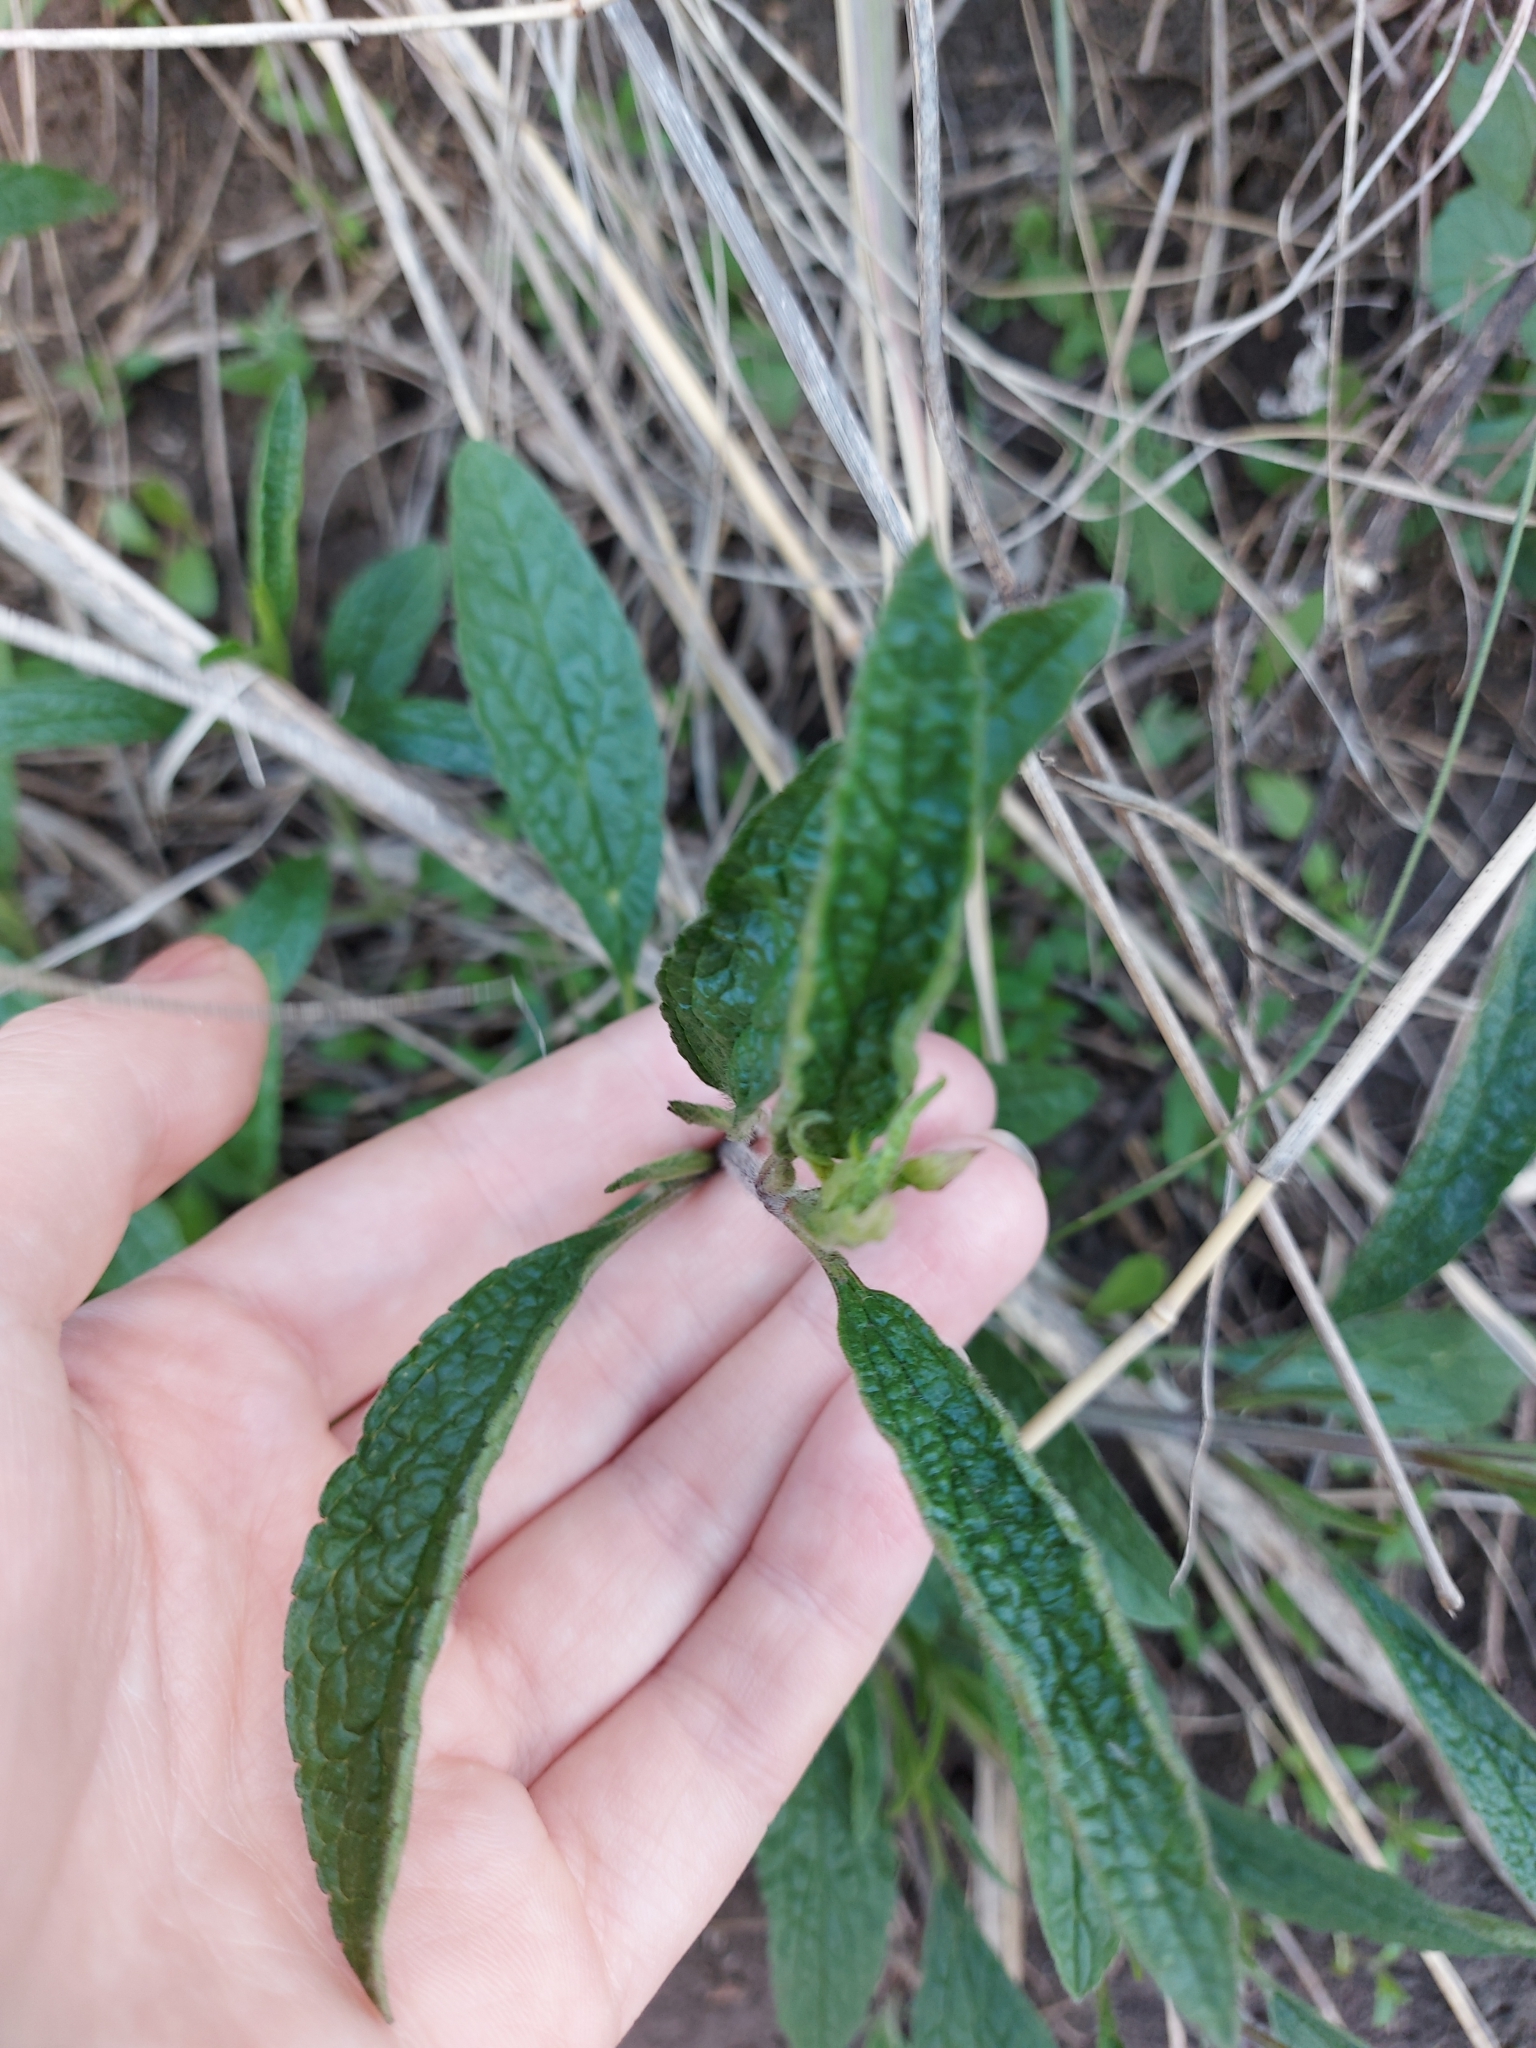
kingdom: Plantae
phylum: Tracheophyta
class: Magnoliopsida
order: Lamiales
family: Lamiaceae
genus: Stachys
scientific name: Stachys recta
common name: Perennial yellow-woundwort
